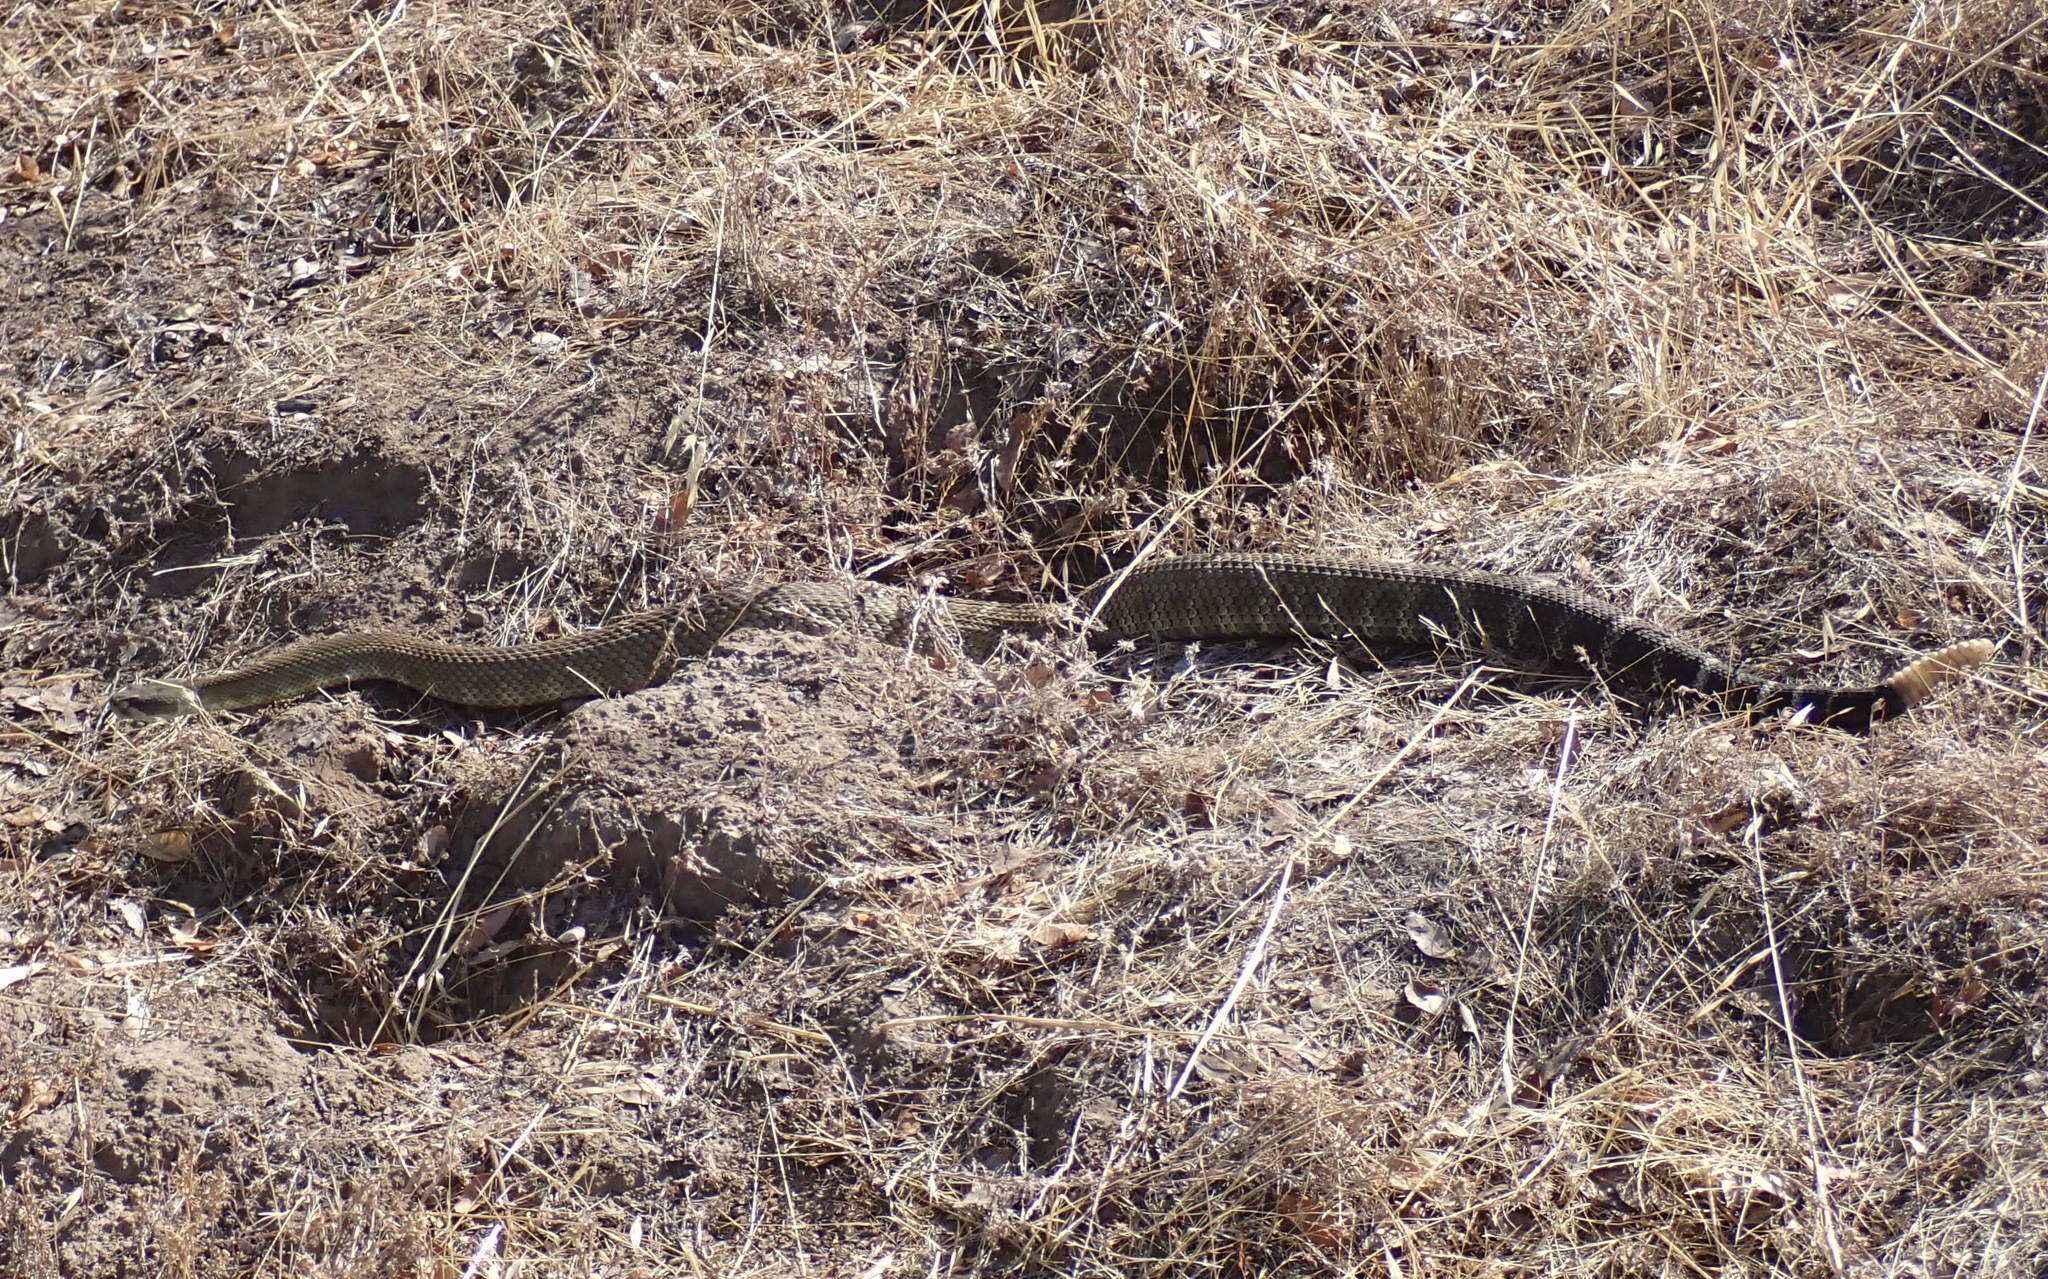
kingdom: Animalia
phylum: Chordata
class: Squamata
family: Viperidae
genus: Crotalus
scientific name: Crotalus oreganus
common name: Abyssus
